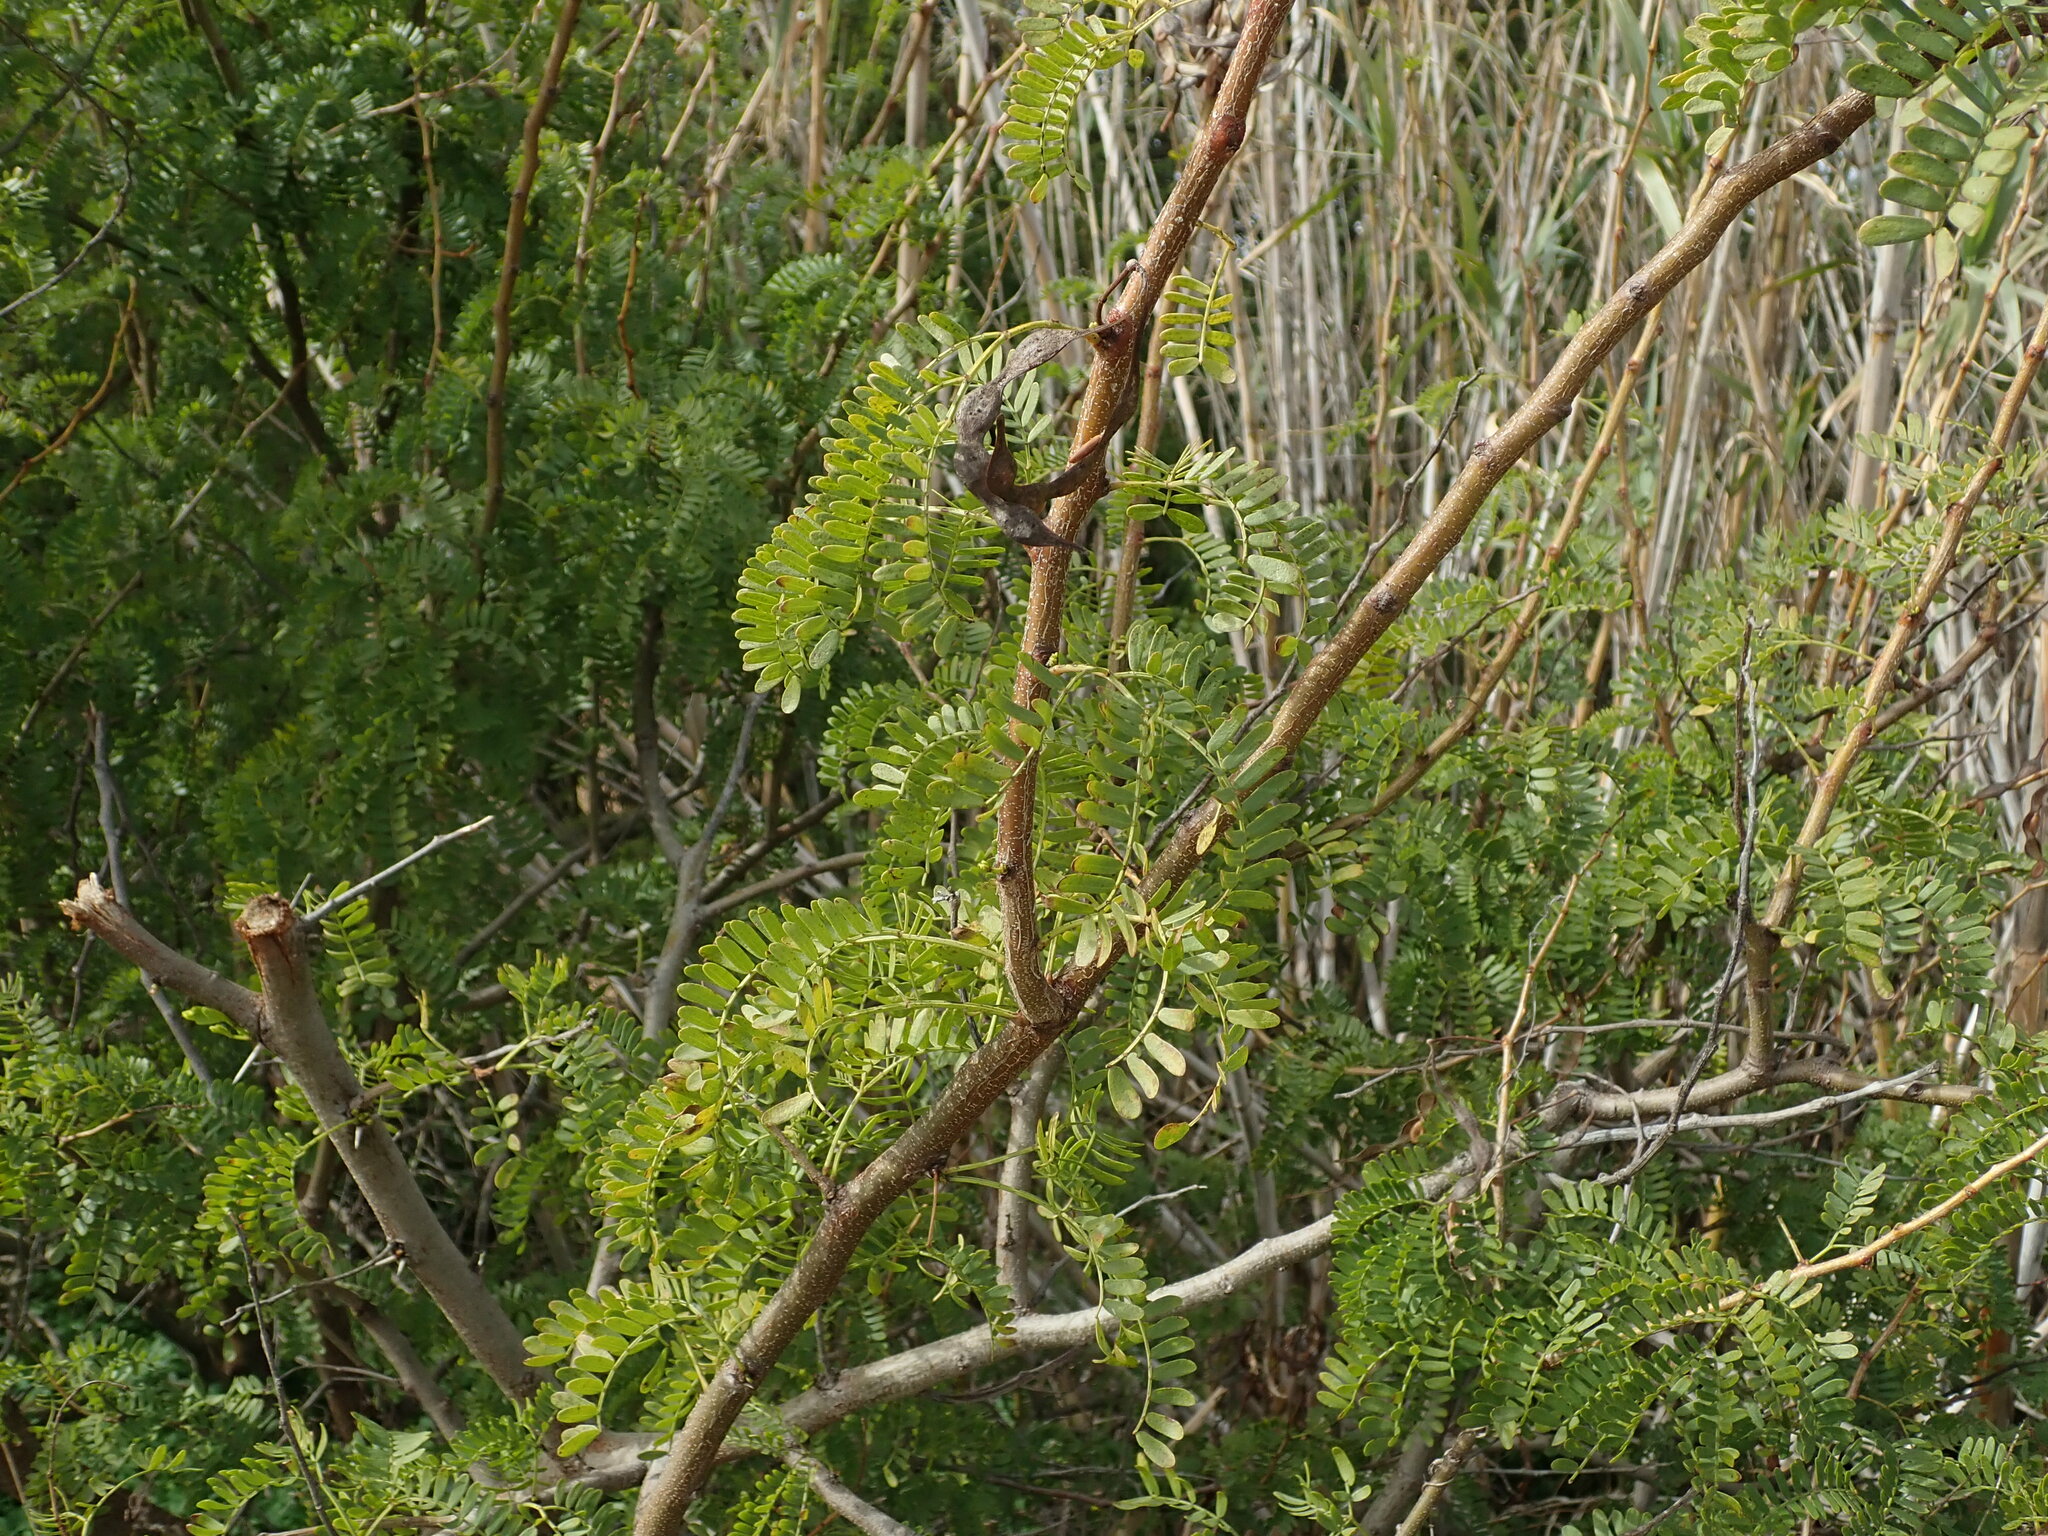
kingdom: Plantae
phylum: Tracheophyta
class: Magnoliopsida
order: Fabales
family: Fabaceae
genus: Vachellia
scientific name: Vachellia karroo
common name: Sweet thorn
